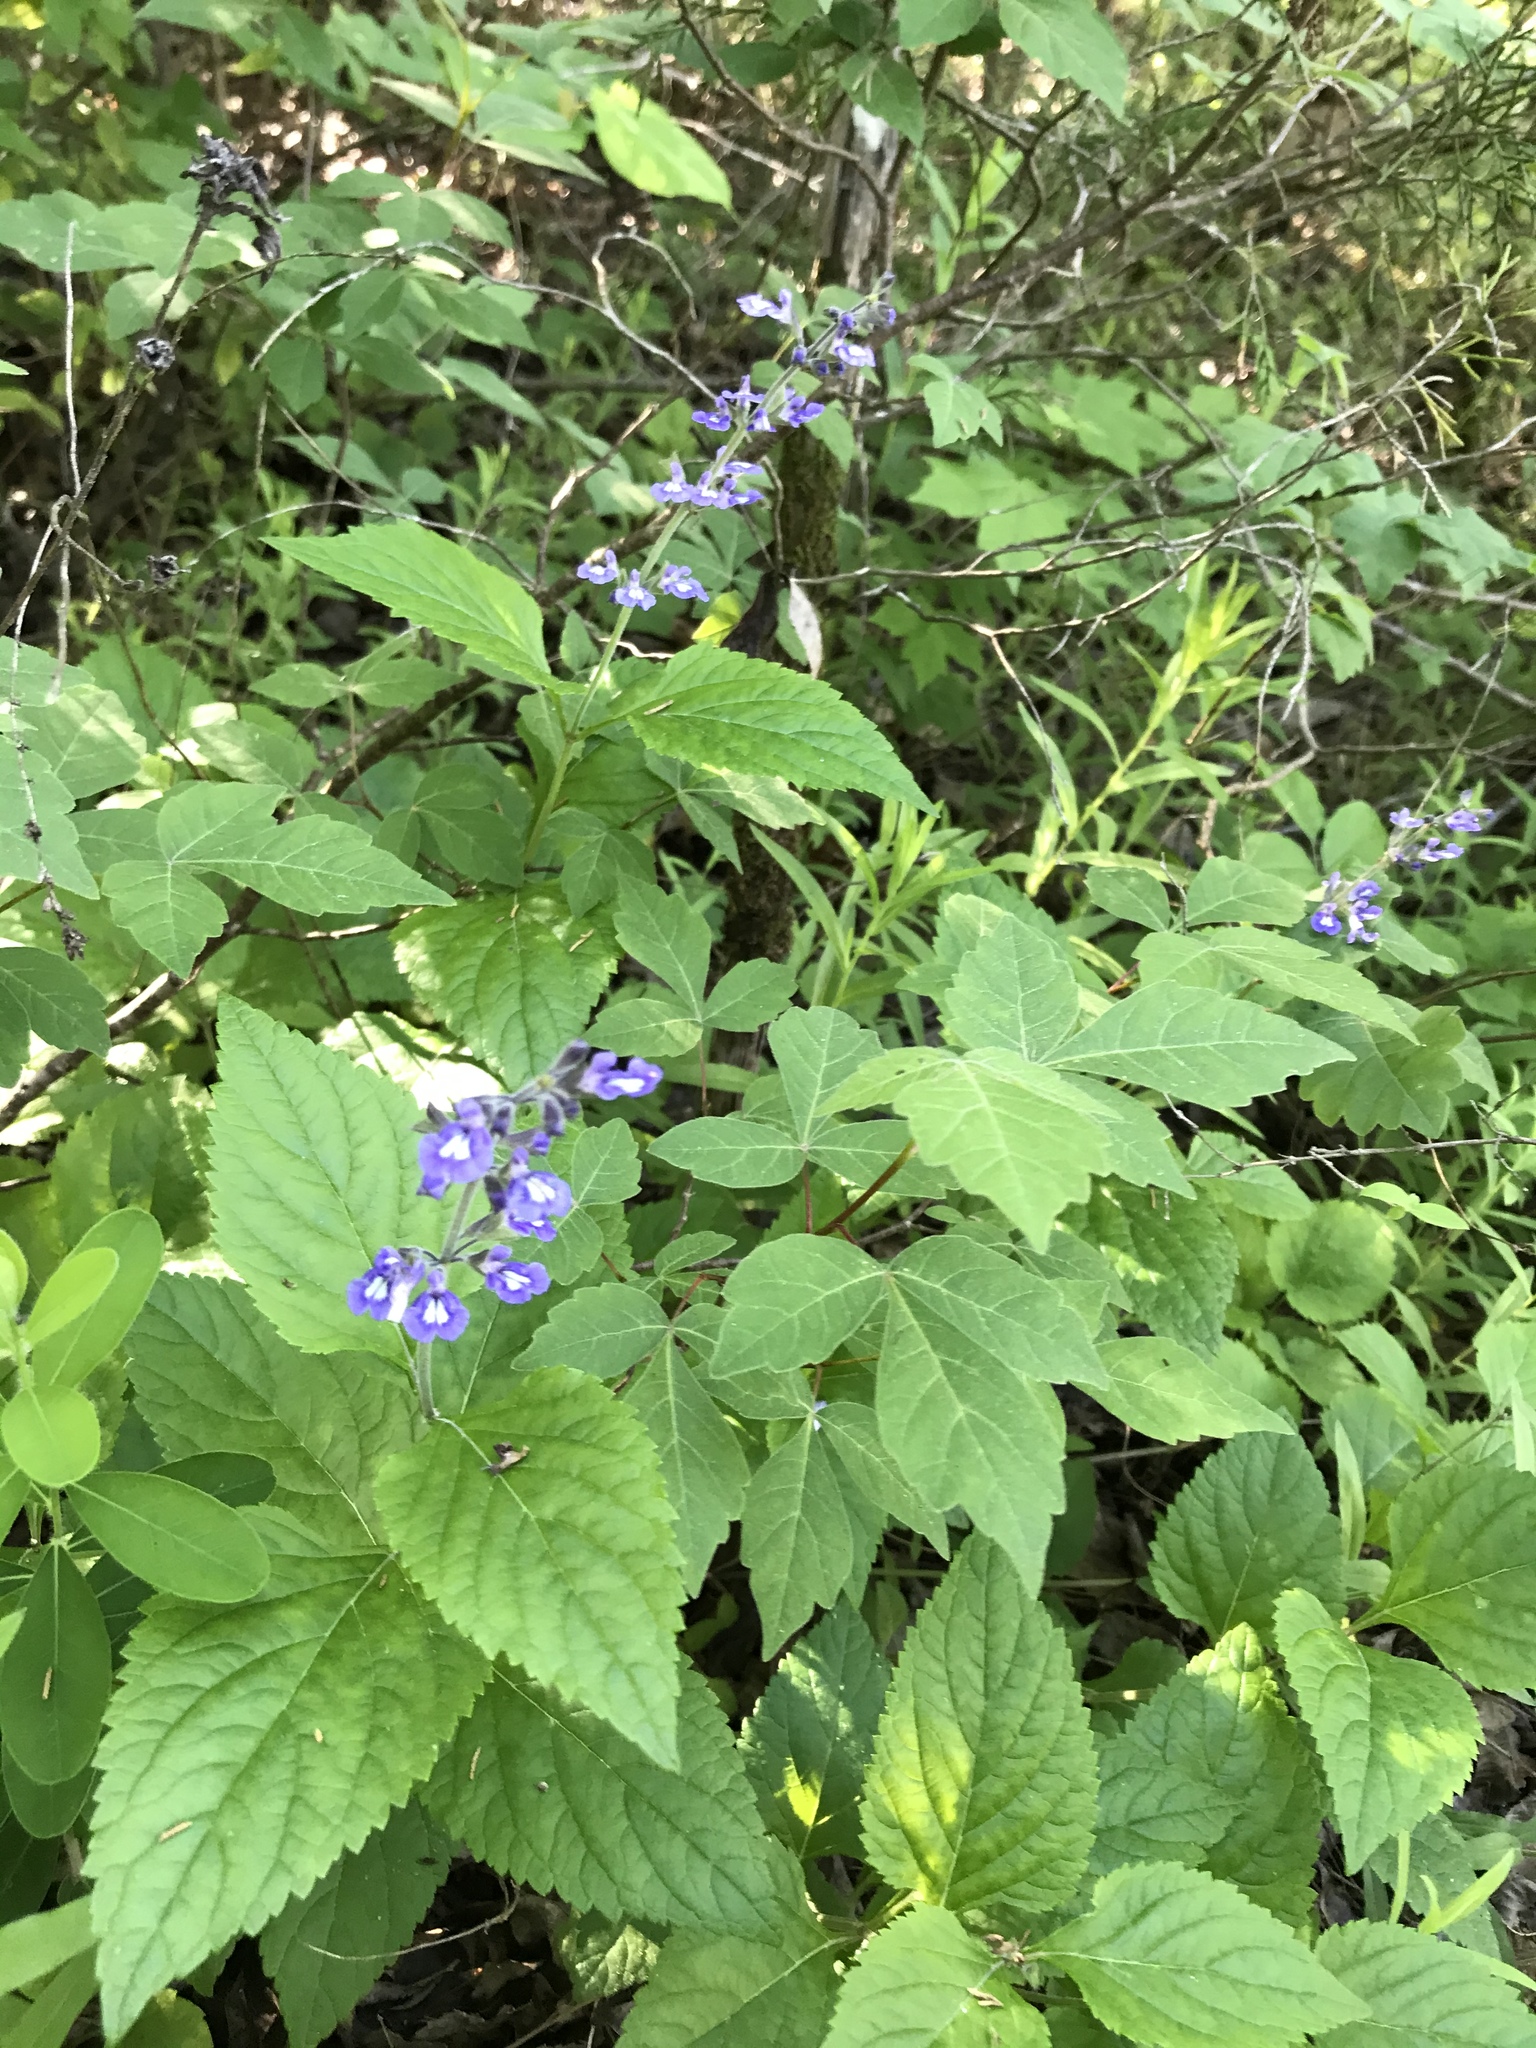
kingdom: Plantae
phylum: Tracheophyta
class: Magnoliopsida
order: Lamiales
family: Lamiaceae
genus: Salvia
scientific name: Salvia urticifolia
